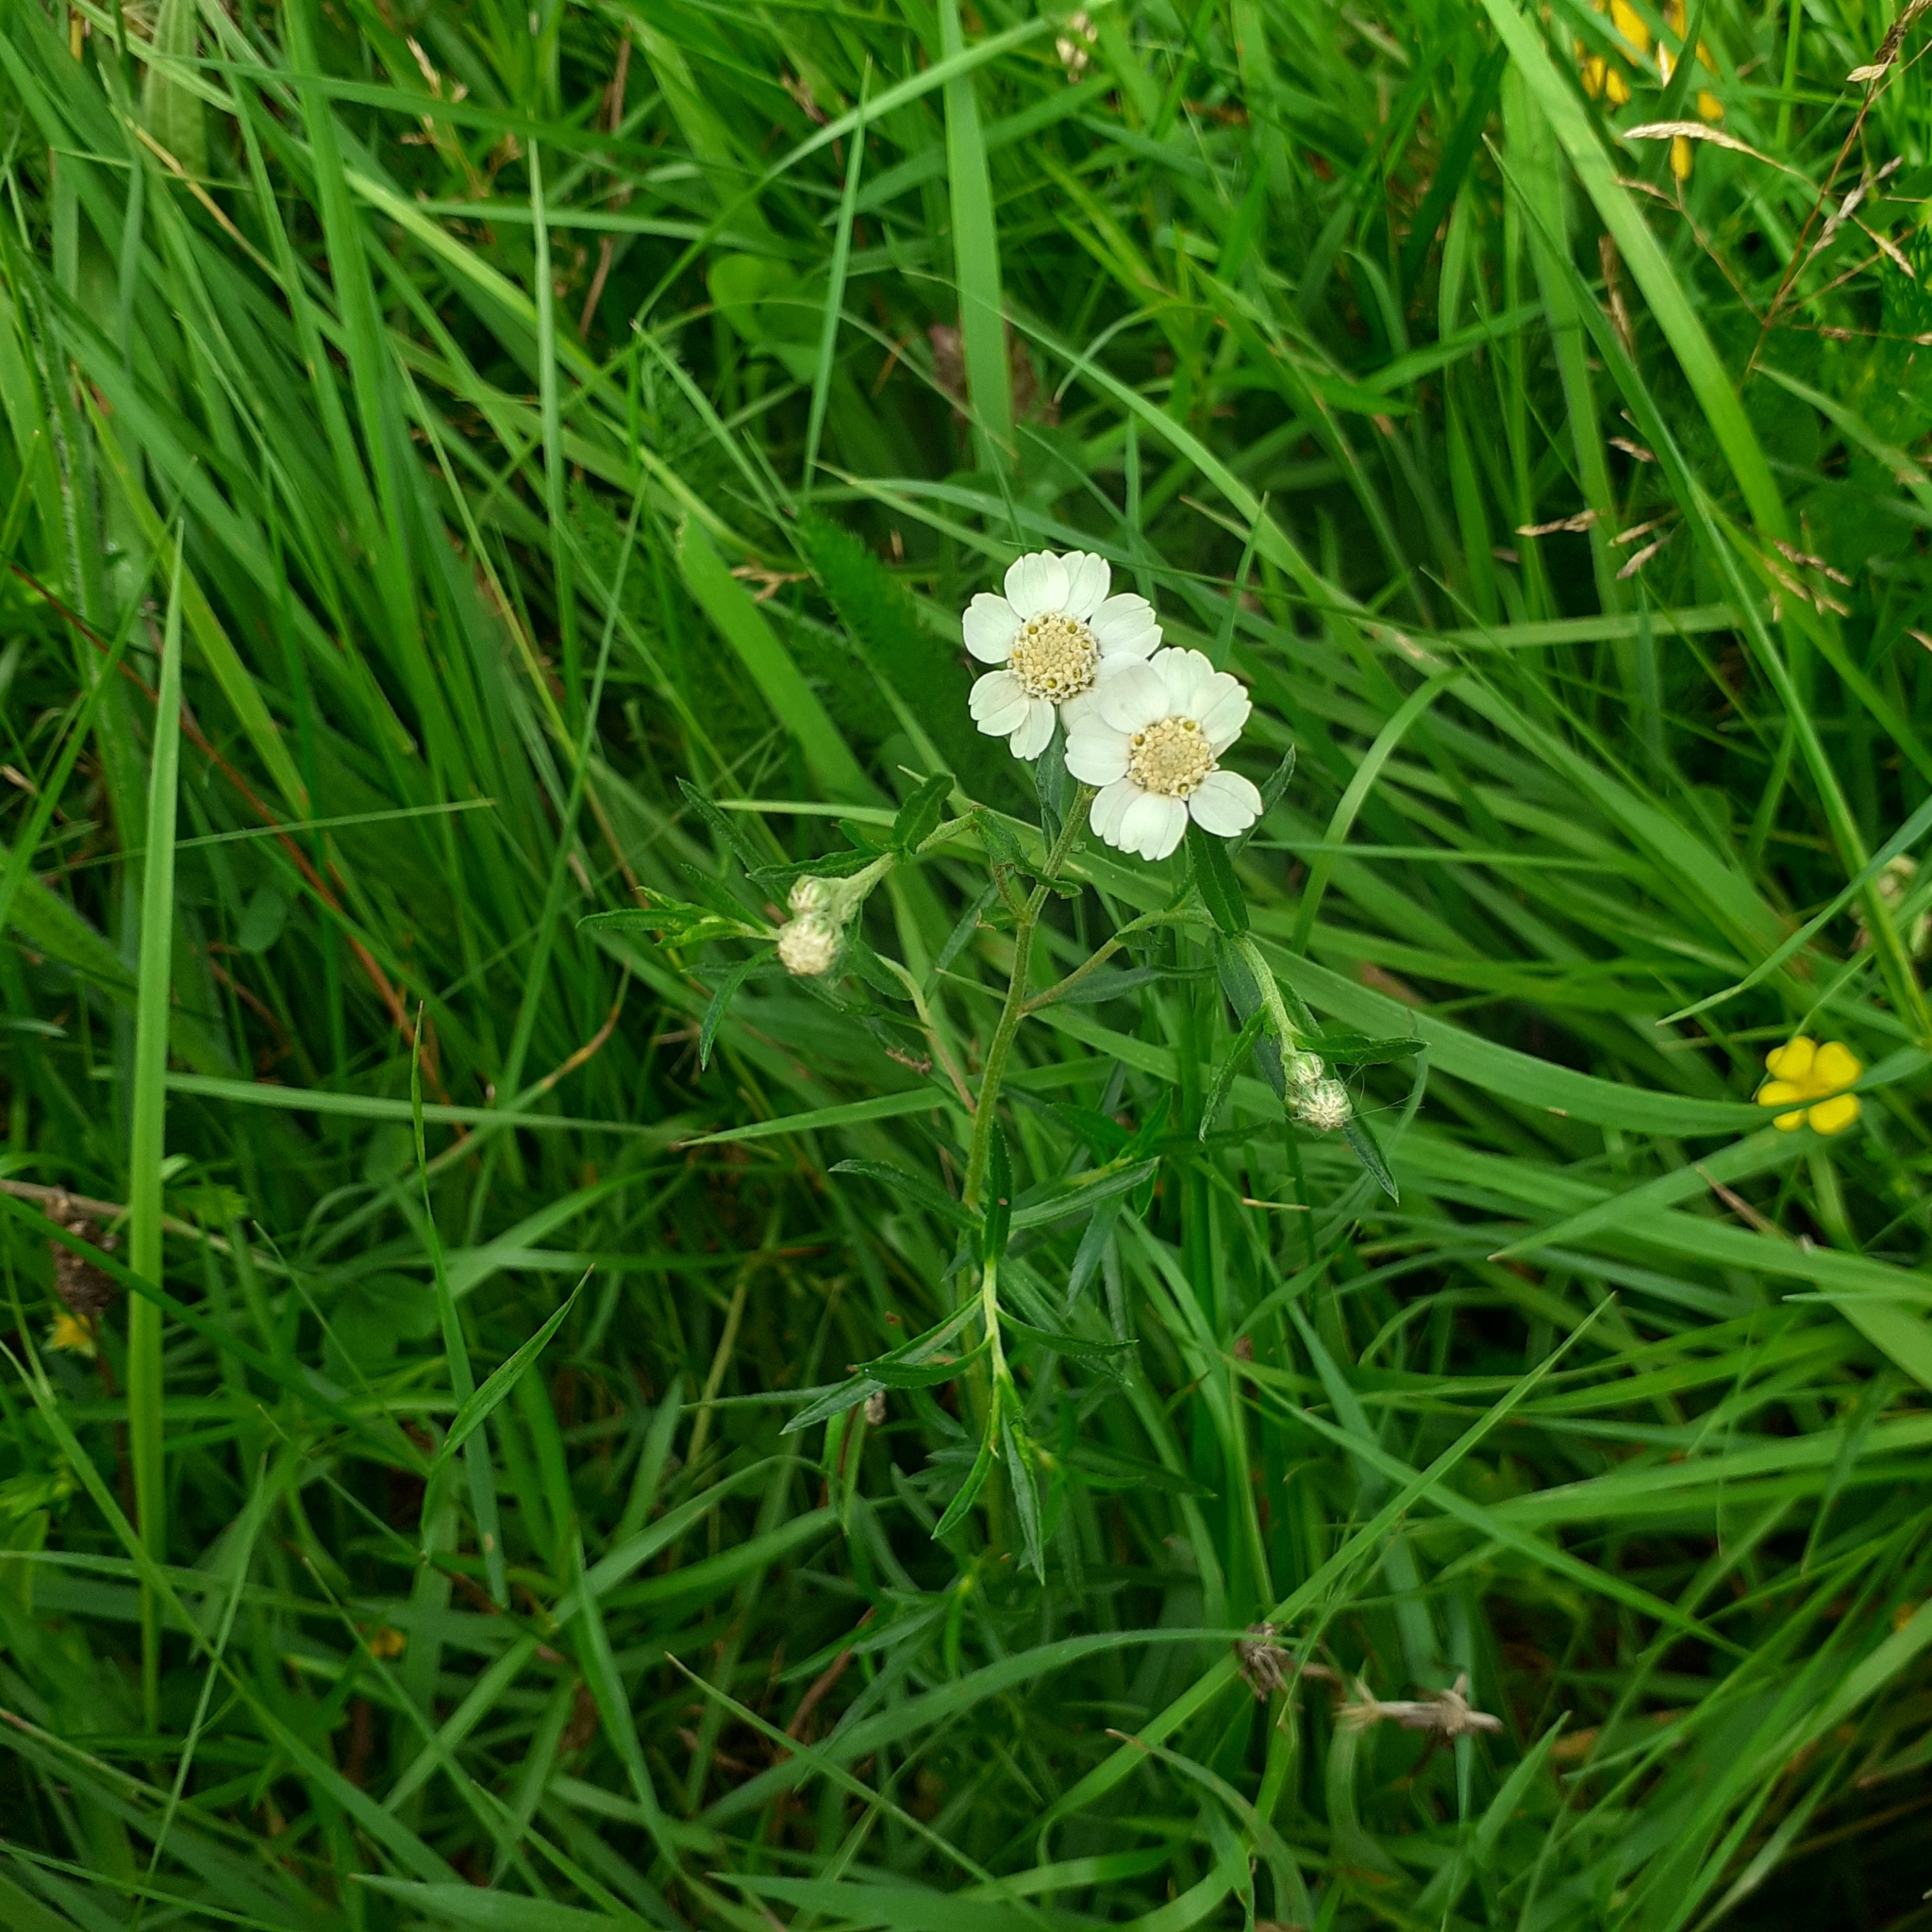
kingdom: Plantae
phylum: Tracheophyta
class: Magnoliopsida
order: Asterales
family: Asteraceae
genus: Achillea
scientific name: Achillea ptarmica
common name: Sneezeweed
